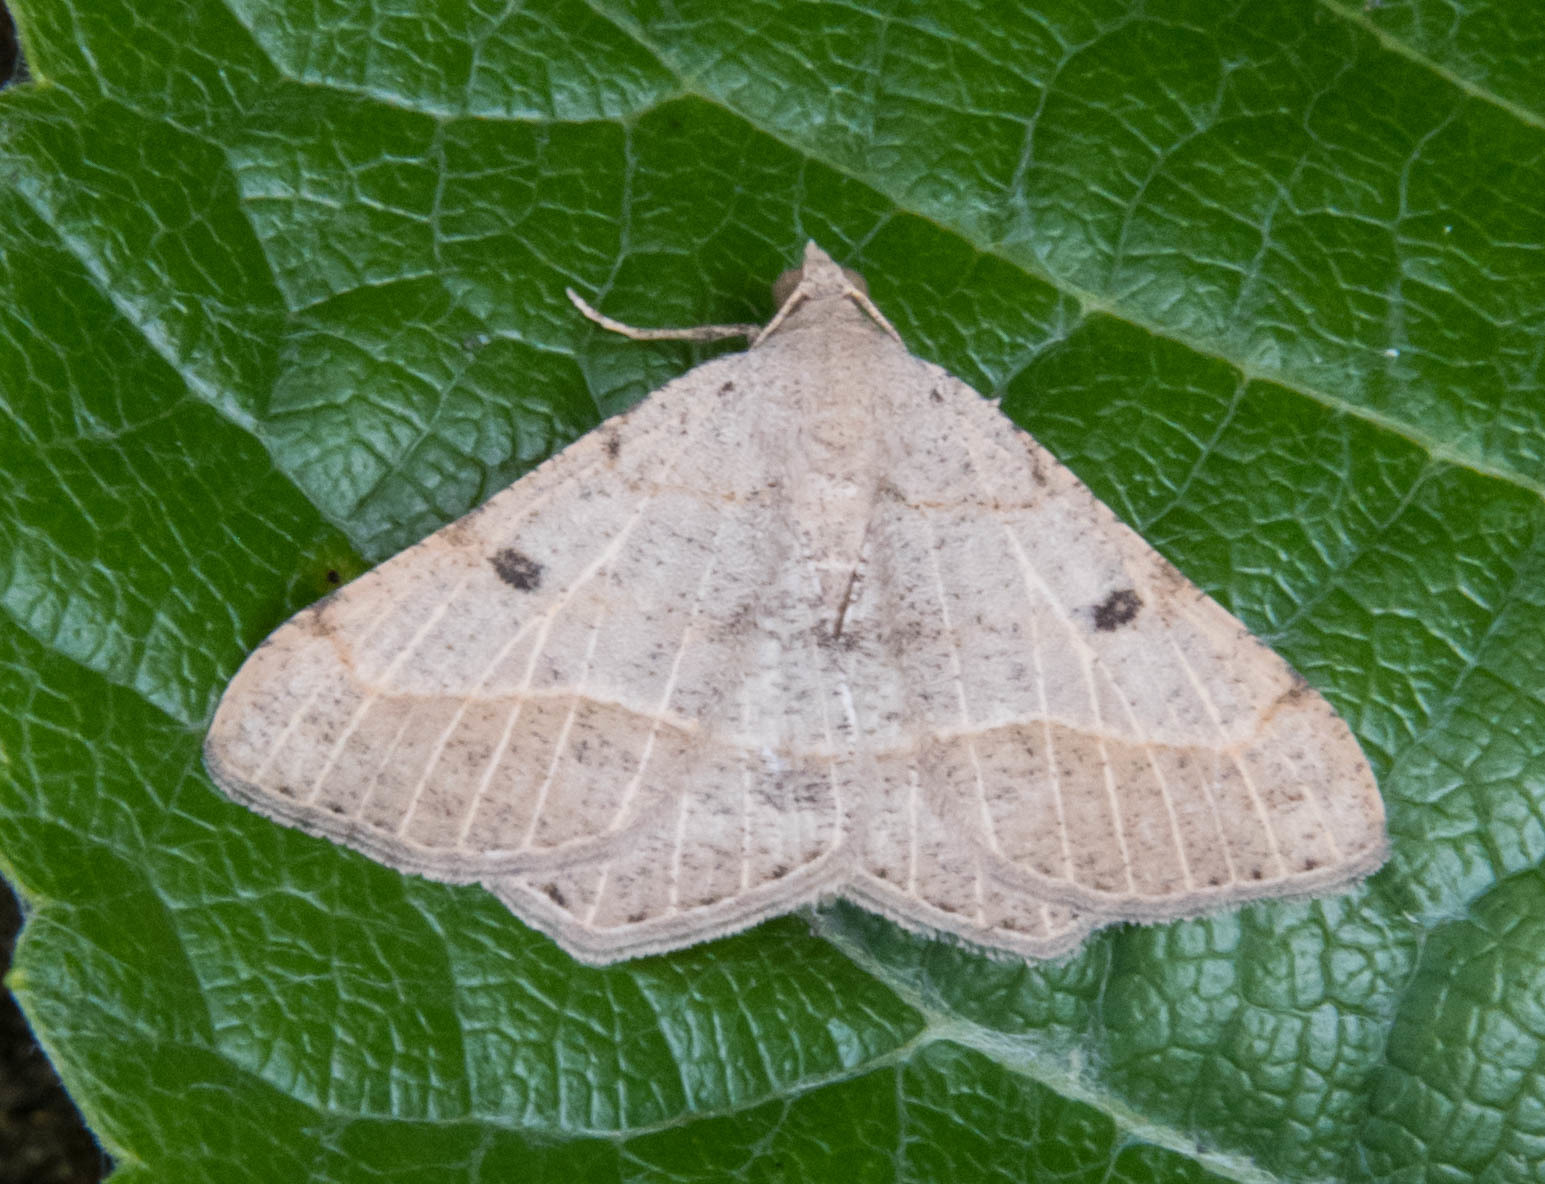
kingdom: Animalia
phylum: Arthropoda
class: Insecta
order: Lepidoptera
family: Geometridae
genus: Digrammia
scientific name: Digrammia irrorata
